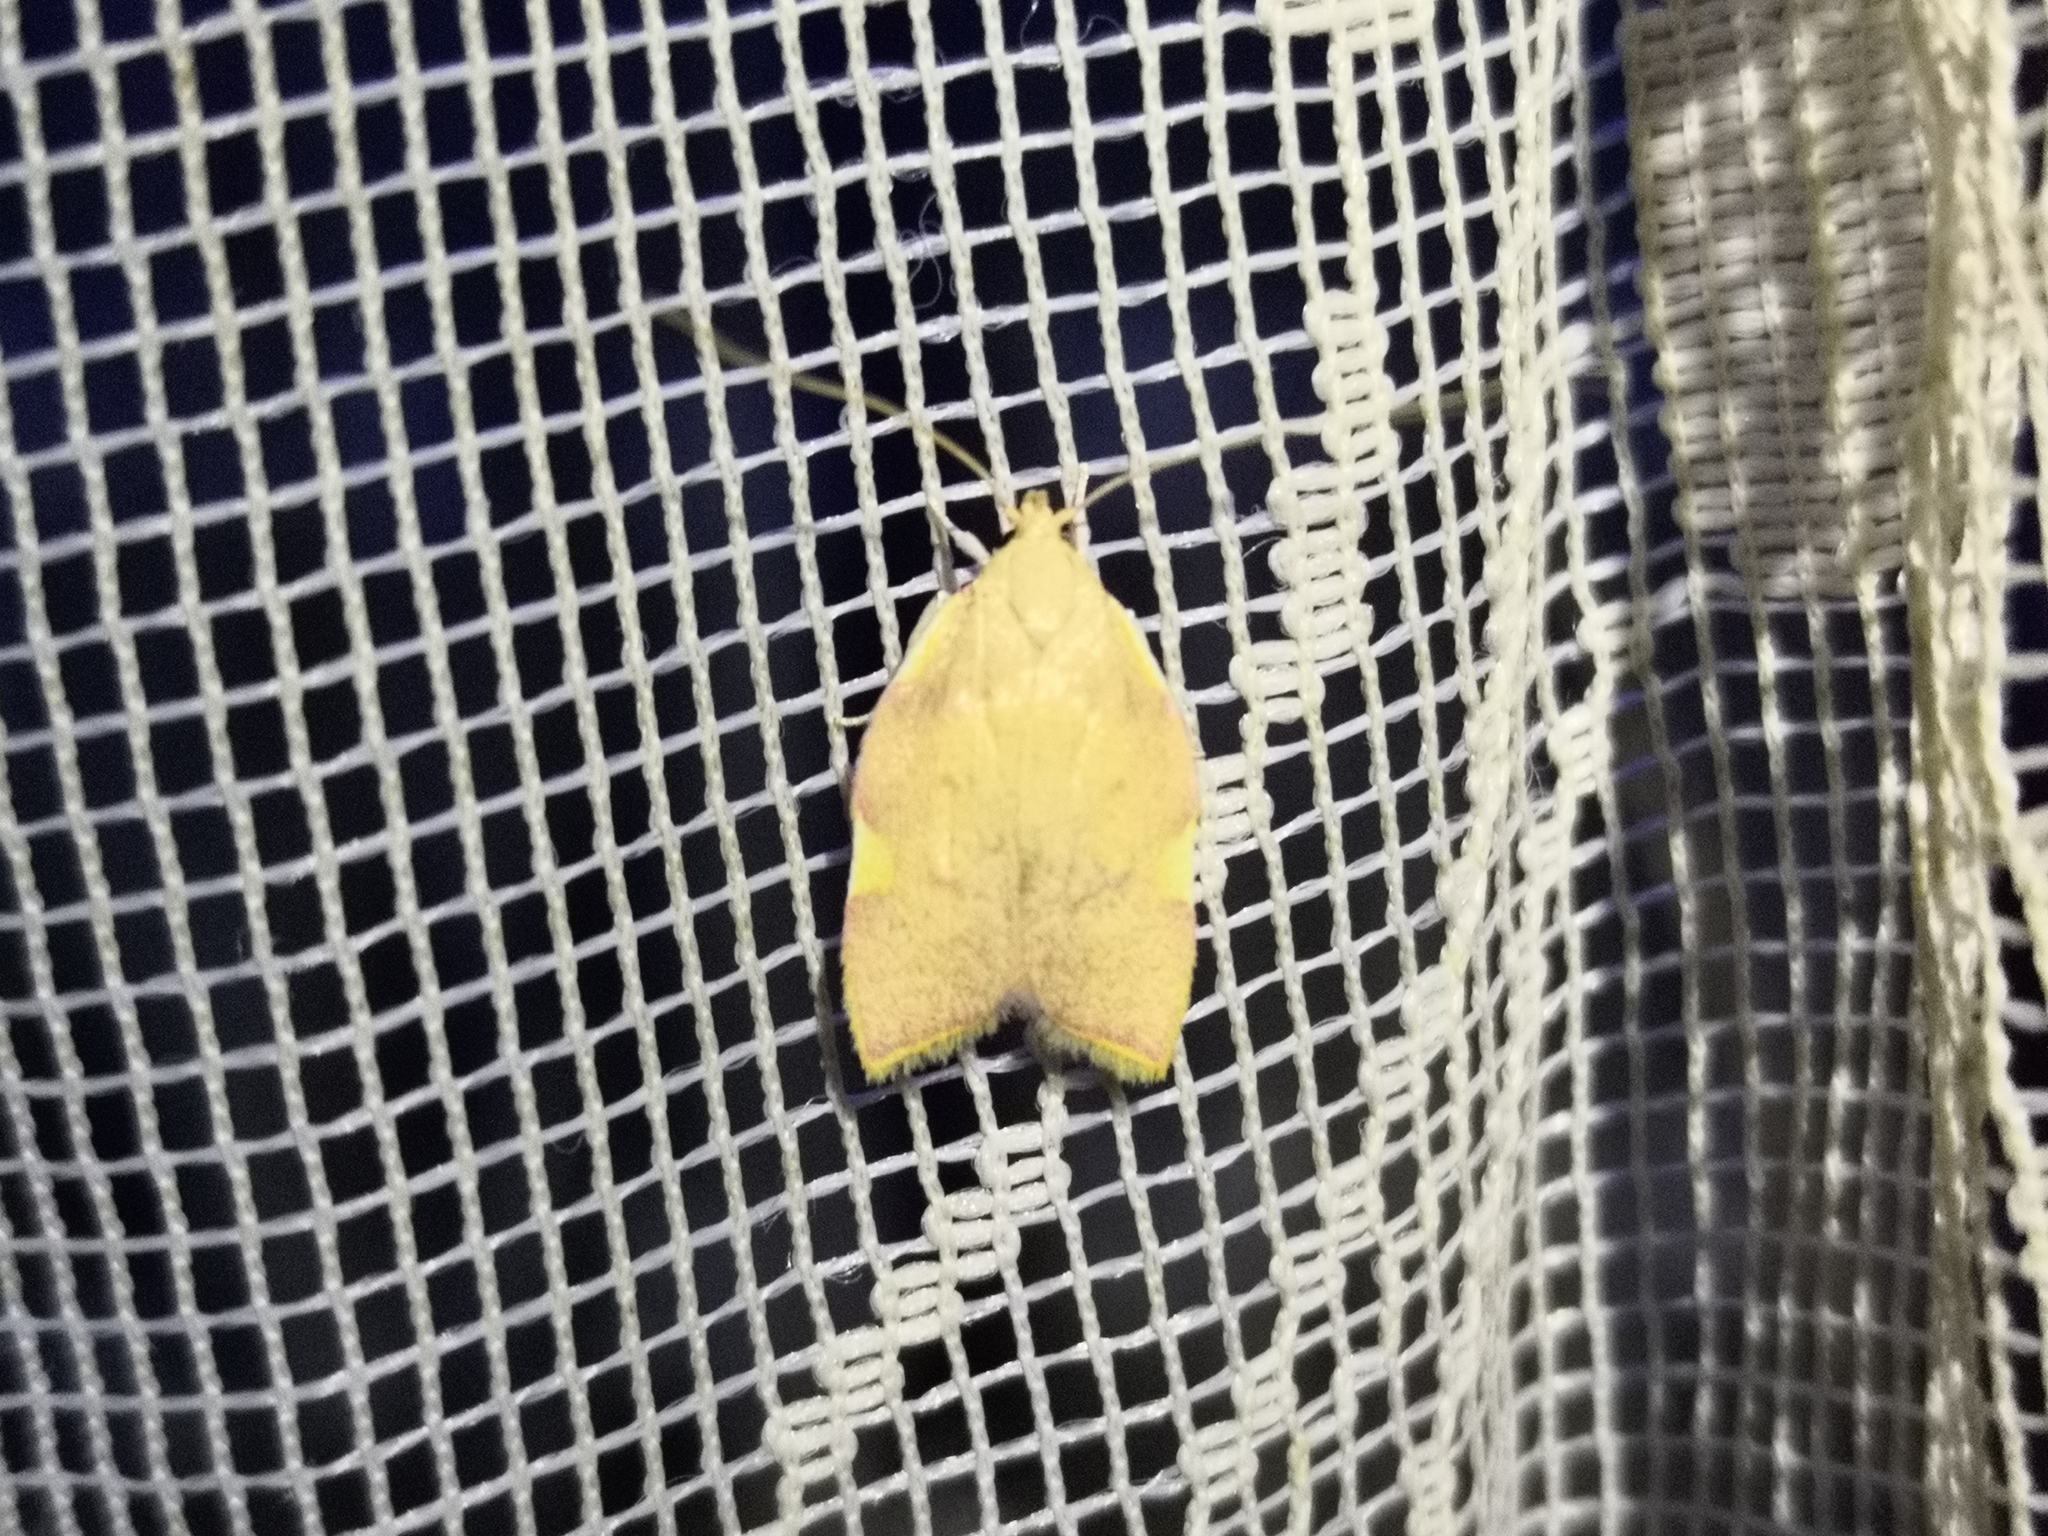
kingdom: Animalia
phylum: Arthropoda
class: Insecta
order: Lepidoptera
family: Peleopodidae
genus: Carcina
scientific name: Carcina quercana
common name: Moth
